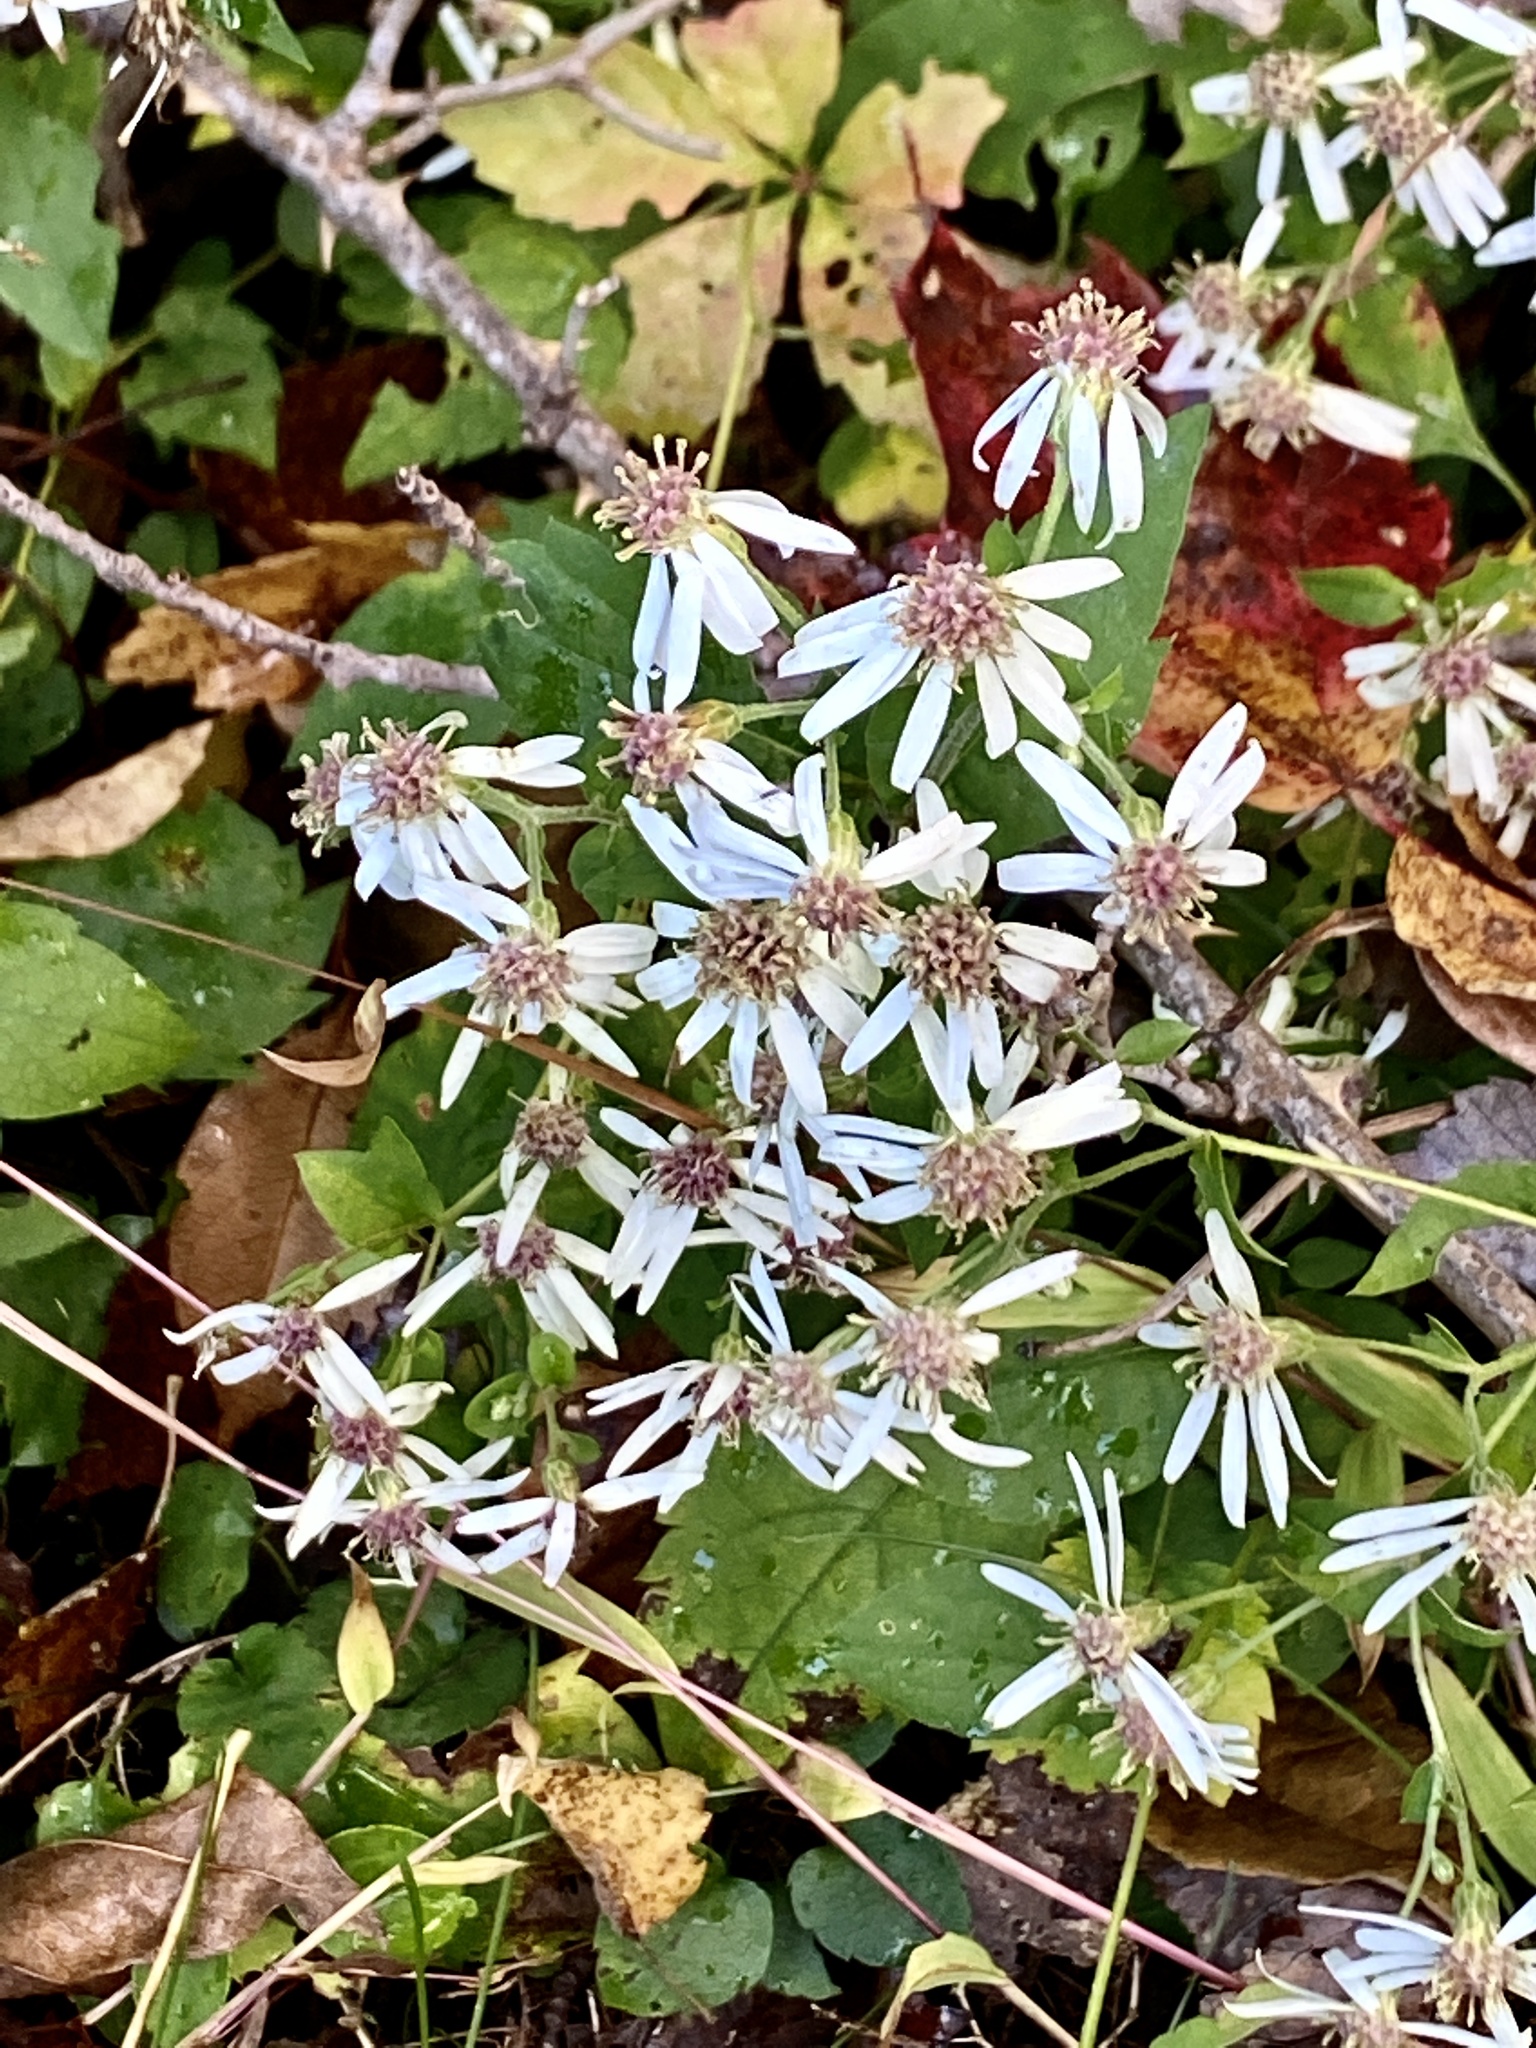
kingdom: Plantae
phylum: Tracheophyta
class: Magnoliopsida
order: Asterales
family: Asteraceae
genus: Eurybia
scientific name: Eurybia divaricata
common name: White wood aster
